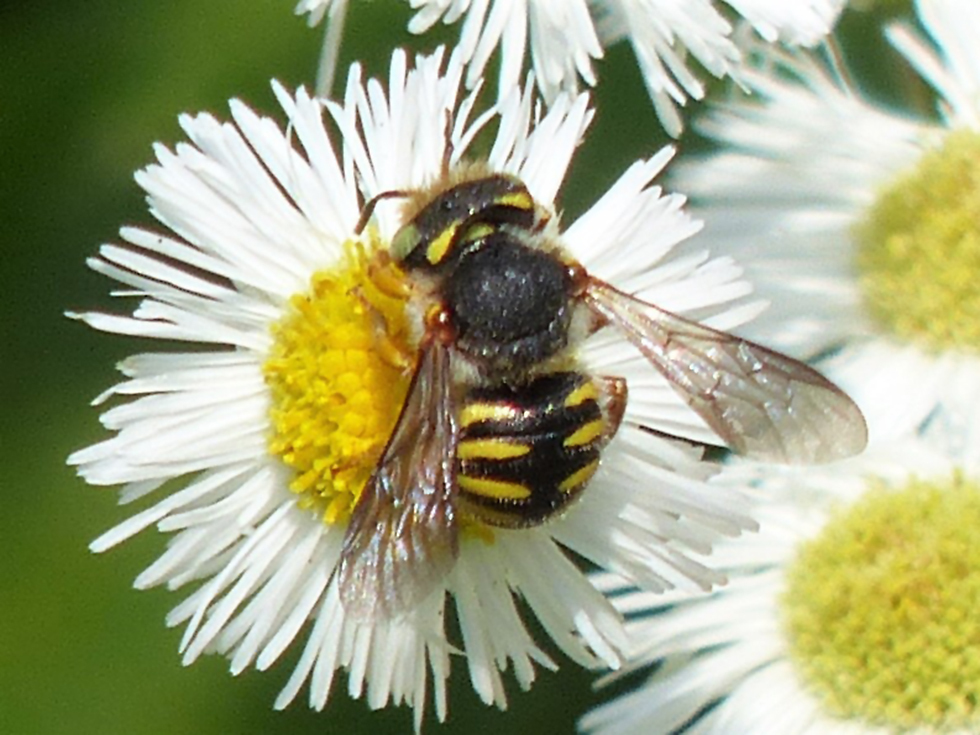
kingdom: Animalia
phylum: Arthropoda
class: Insecta
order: Hymenoptera
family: Megachilidae
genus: Anthidium
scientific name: Anthidium oblongatum
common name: Oblong wool carder bee
